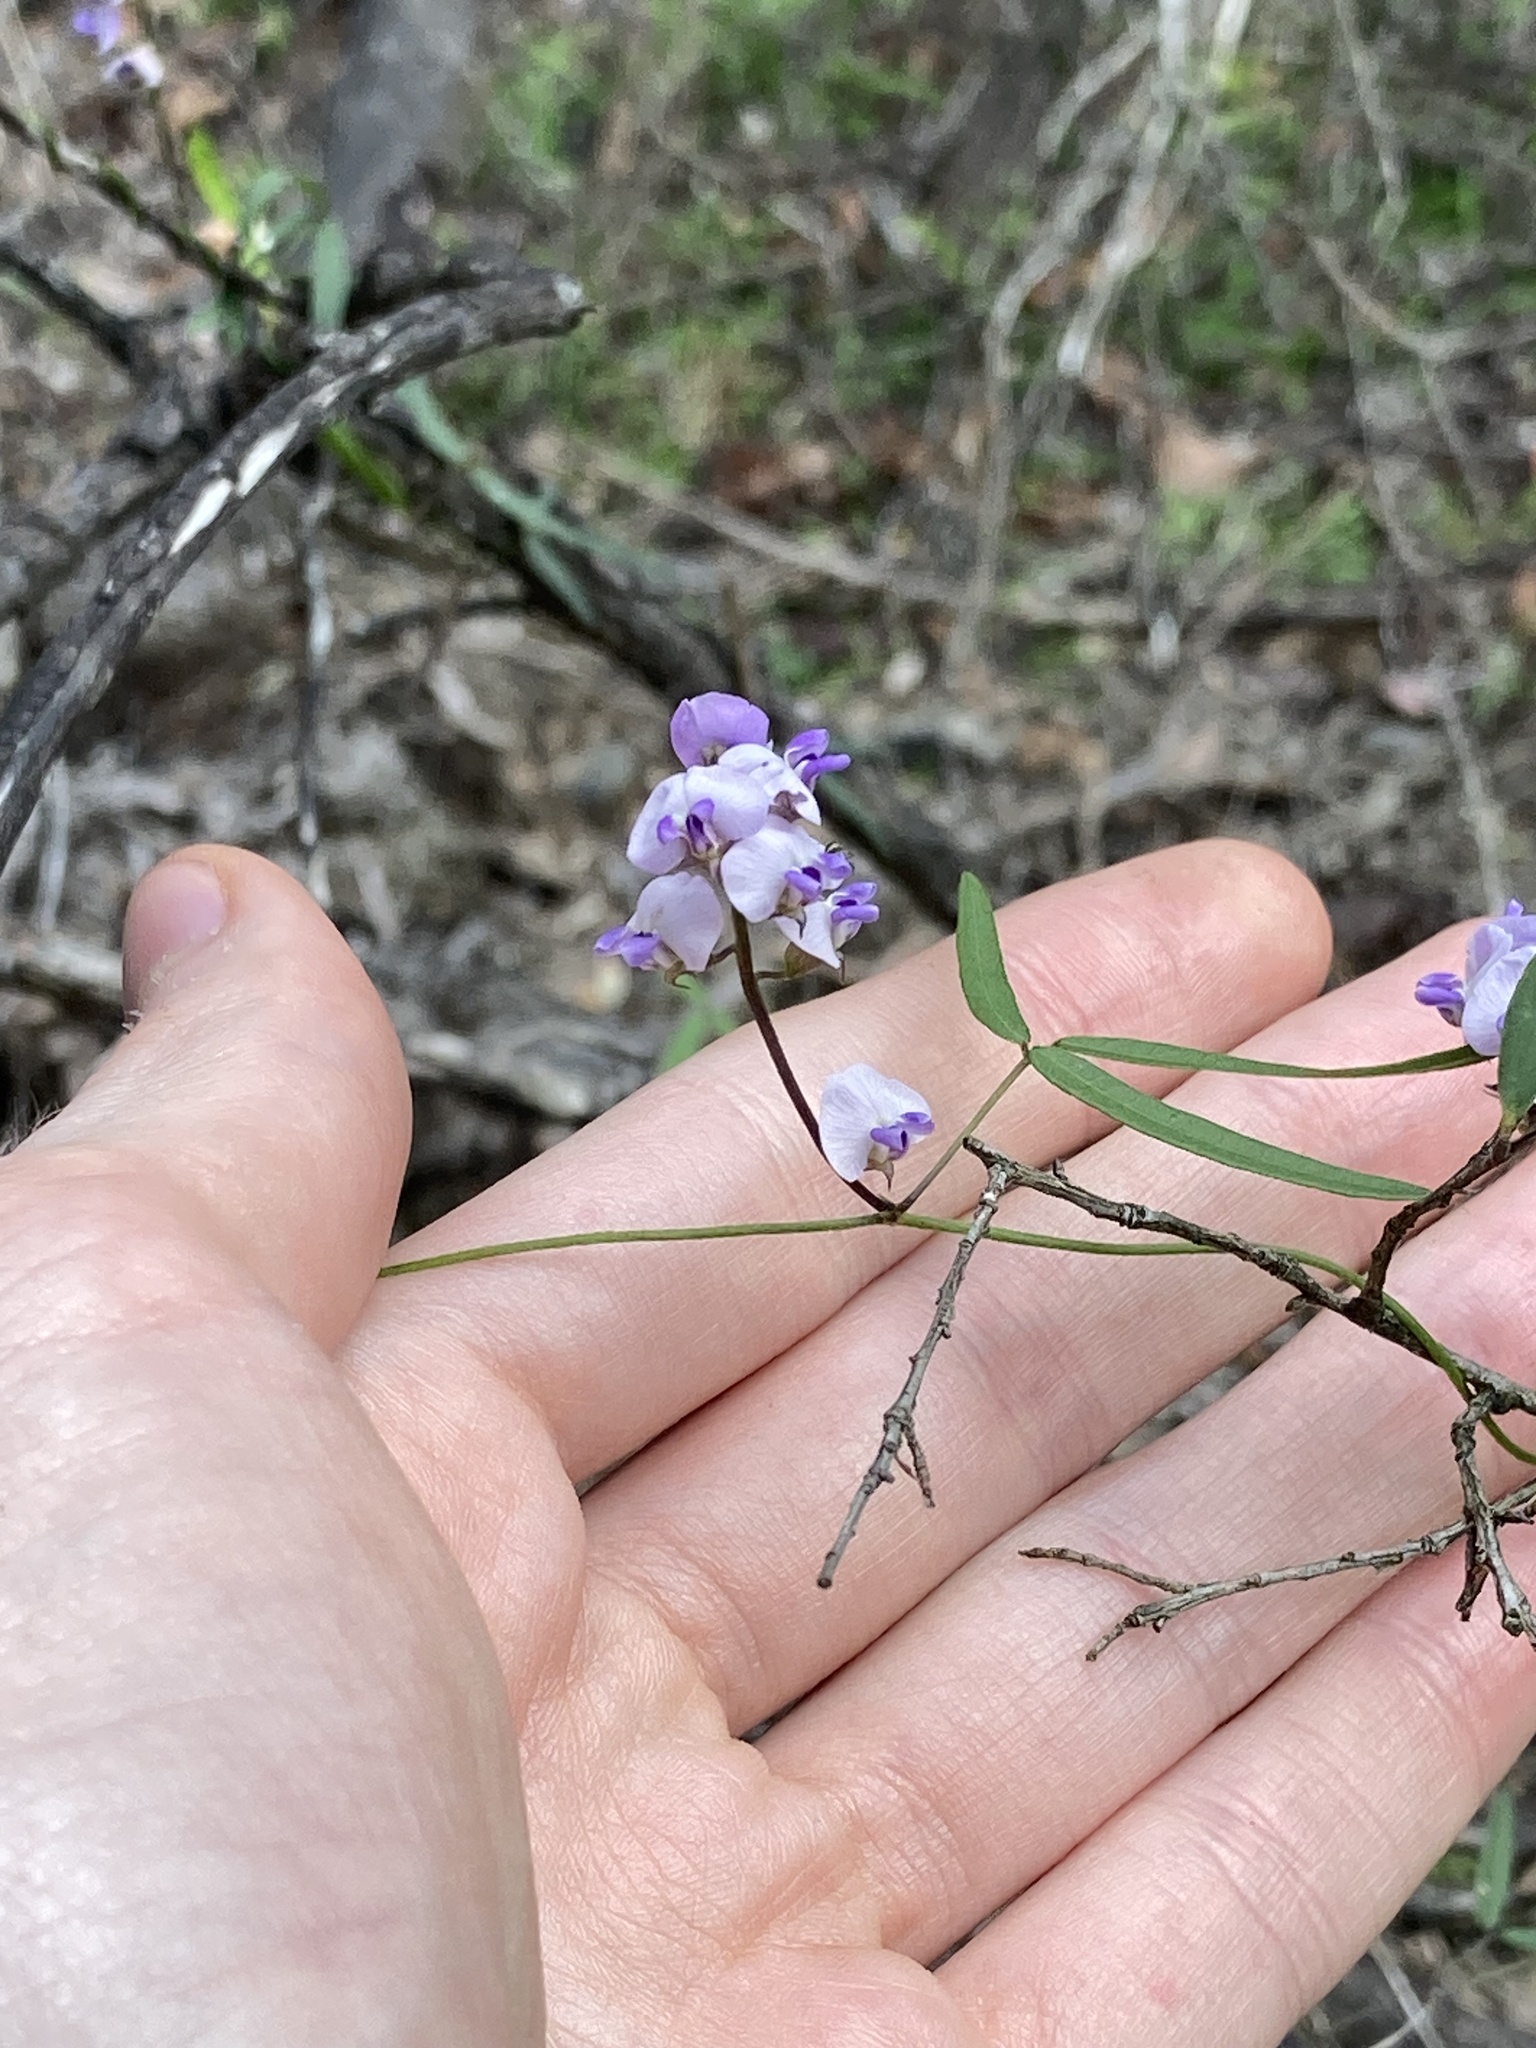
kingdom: Plantae
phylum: Tracheophyta
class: Magnoliopsida
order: Fabales
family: Fabaceae
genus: Glycine
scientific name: Glycine clandestina
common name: Twining glycine
